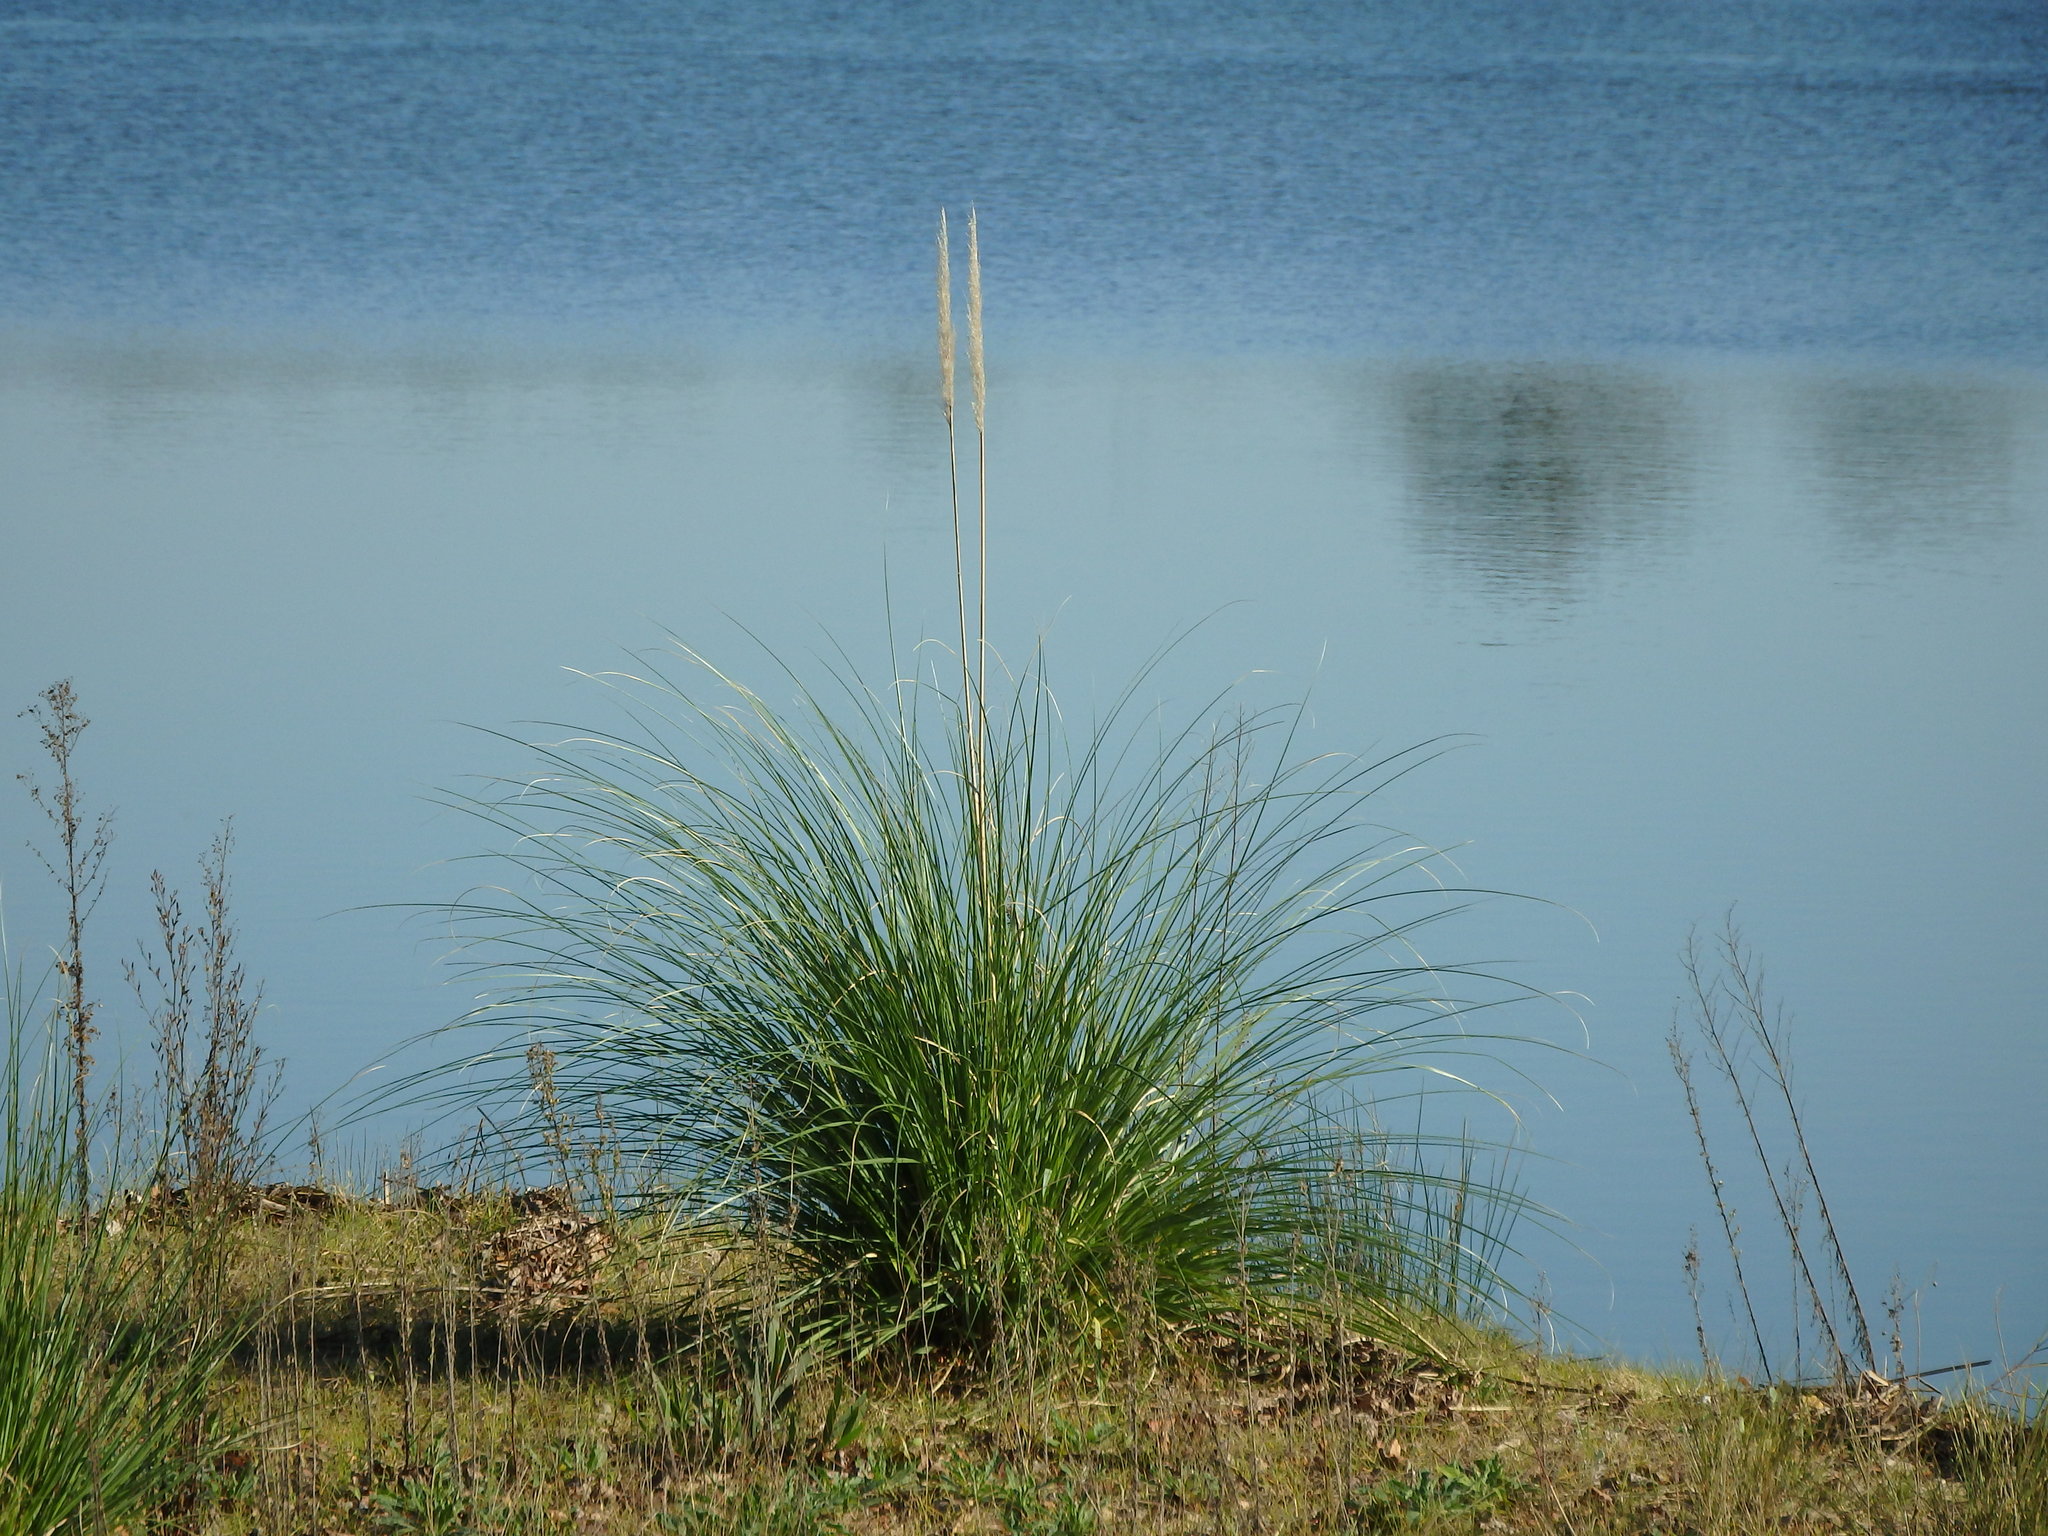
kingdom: Plantae
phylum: Tracheophyta
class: Liliopsida
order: Poales
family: Poaceae
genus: Cortaderia
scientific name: Cortaderia selloana
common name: Uruguayan pampas grass
